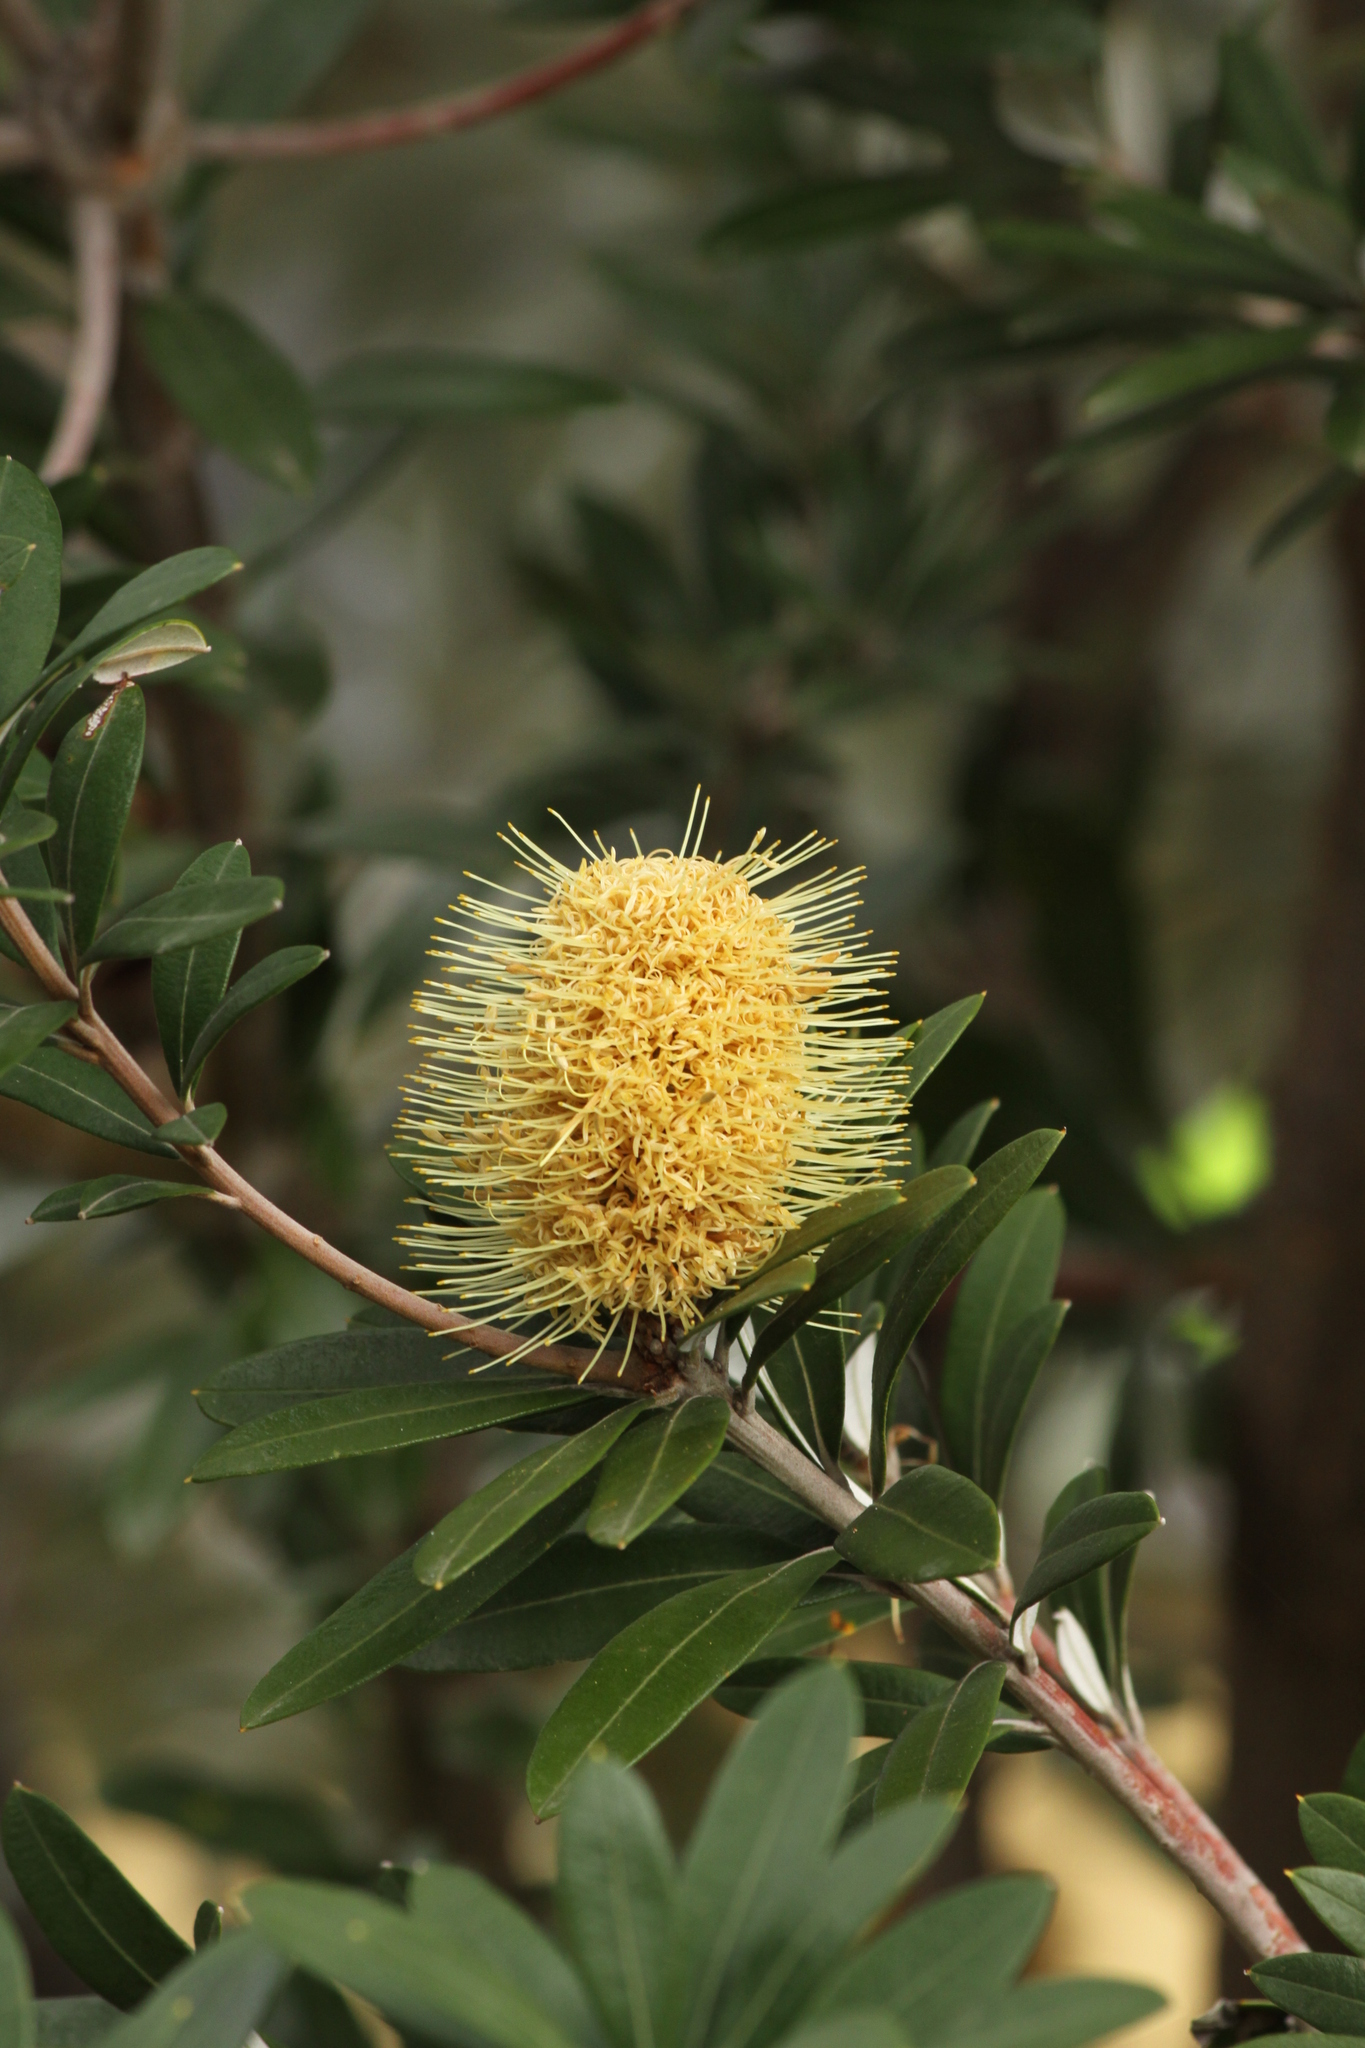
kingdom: Plantae
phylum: Tracheophyta
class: Magnoliopsida
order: Proteales
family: Proteaceae
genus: Banksia
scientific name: Banksia integrifolia
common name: White-honeysuckle
